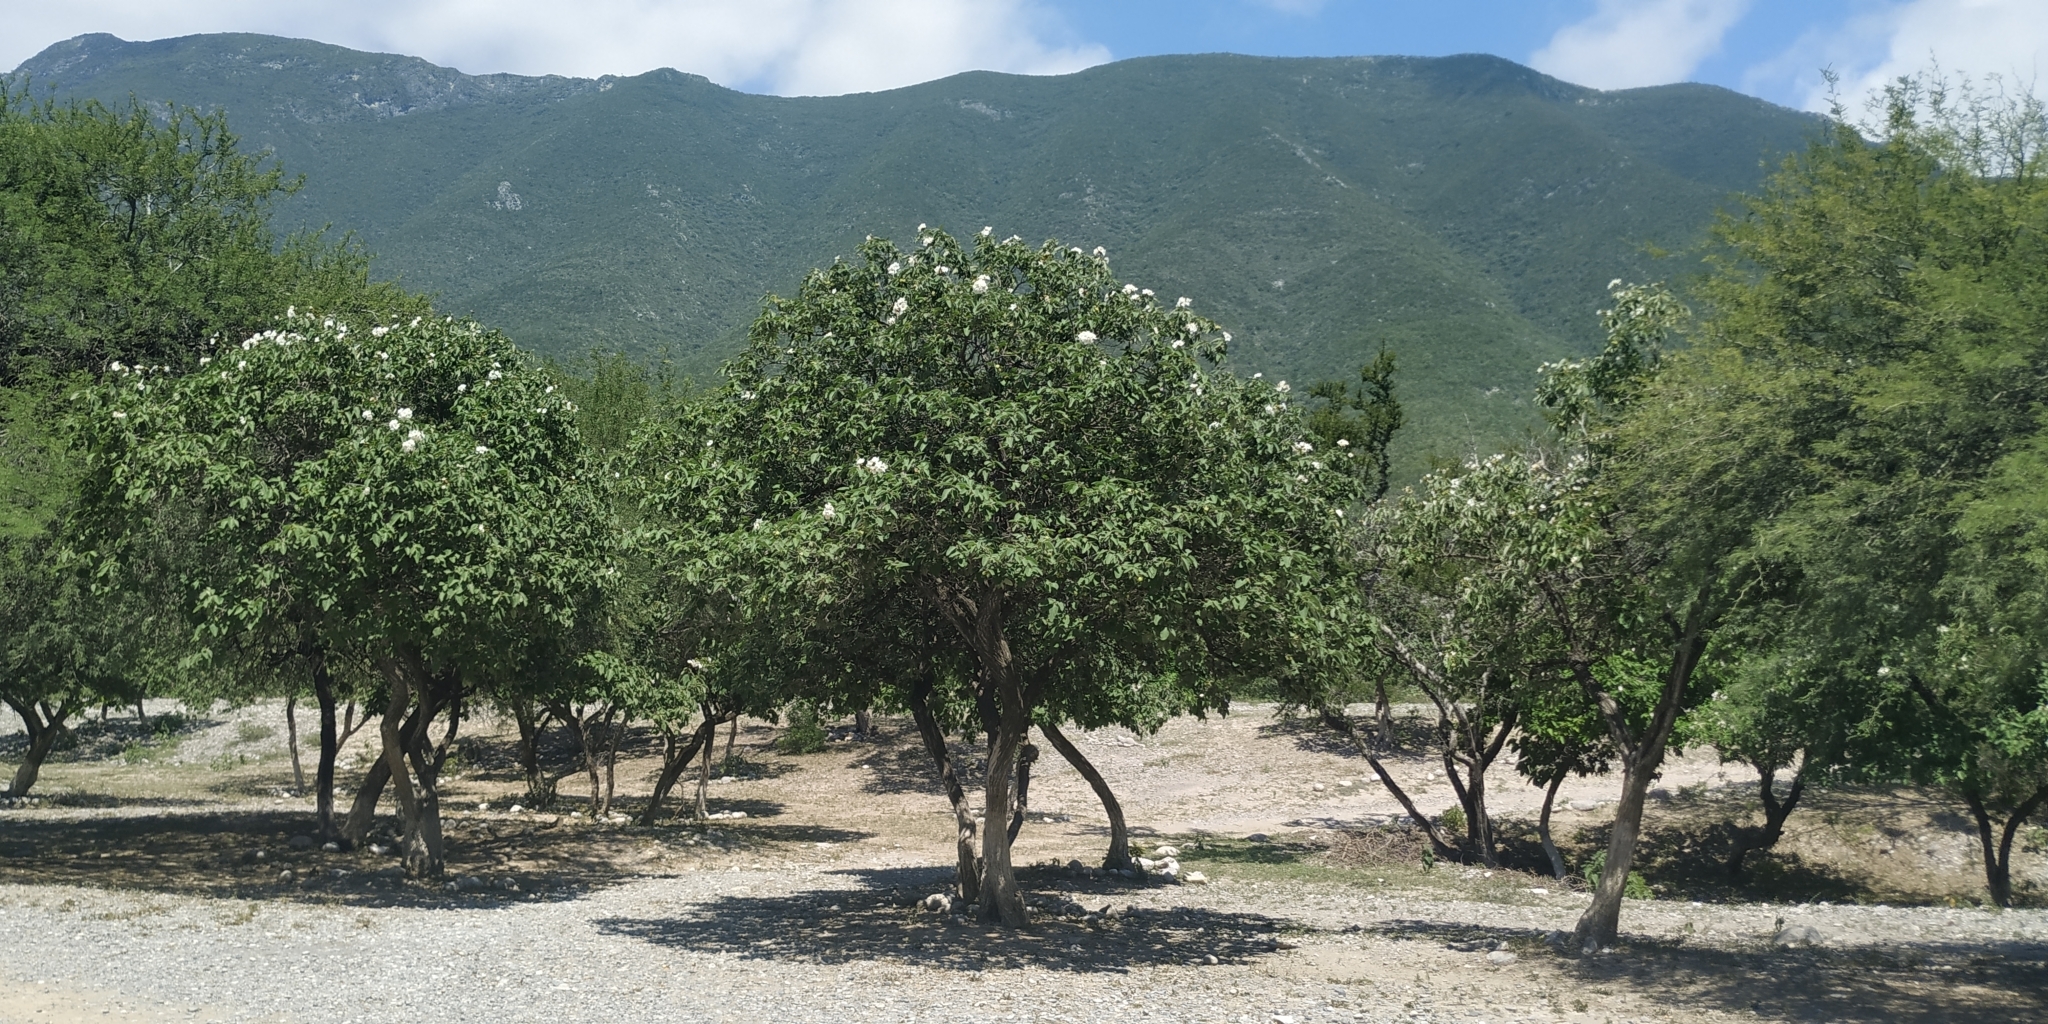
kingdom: Plantae
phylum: Tracheophyta
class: Magnoliopsida
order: Boraginales
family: Cordiaceae
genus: Cordia
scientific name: Cordia boissieri
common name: Mexican-olive
